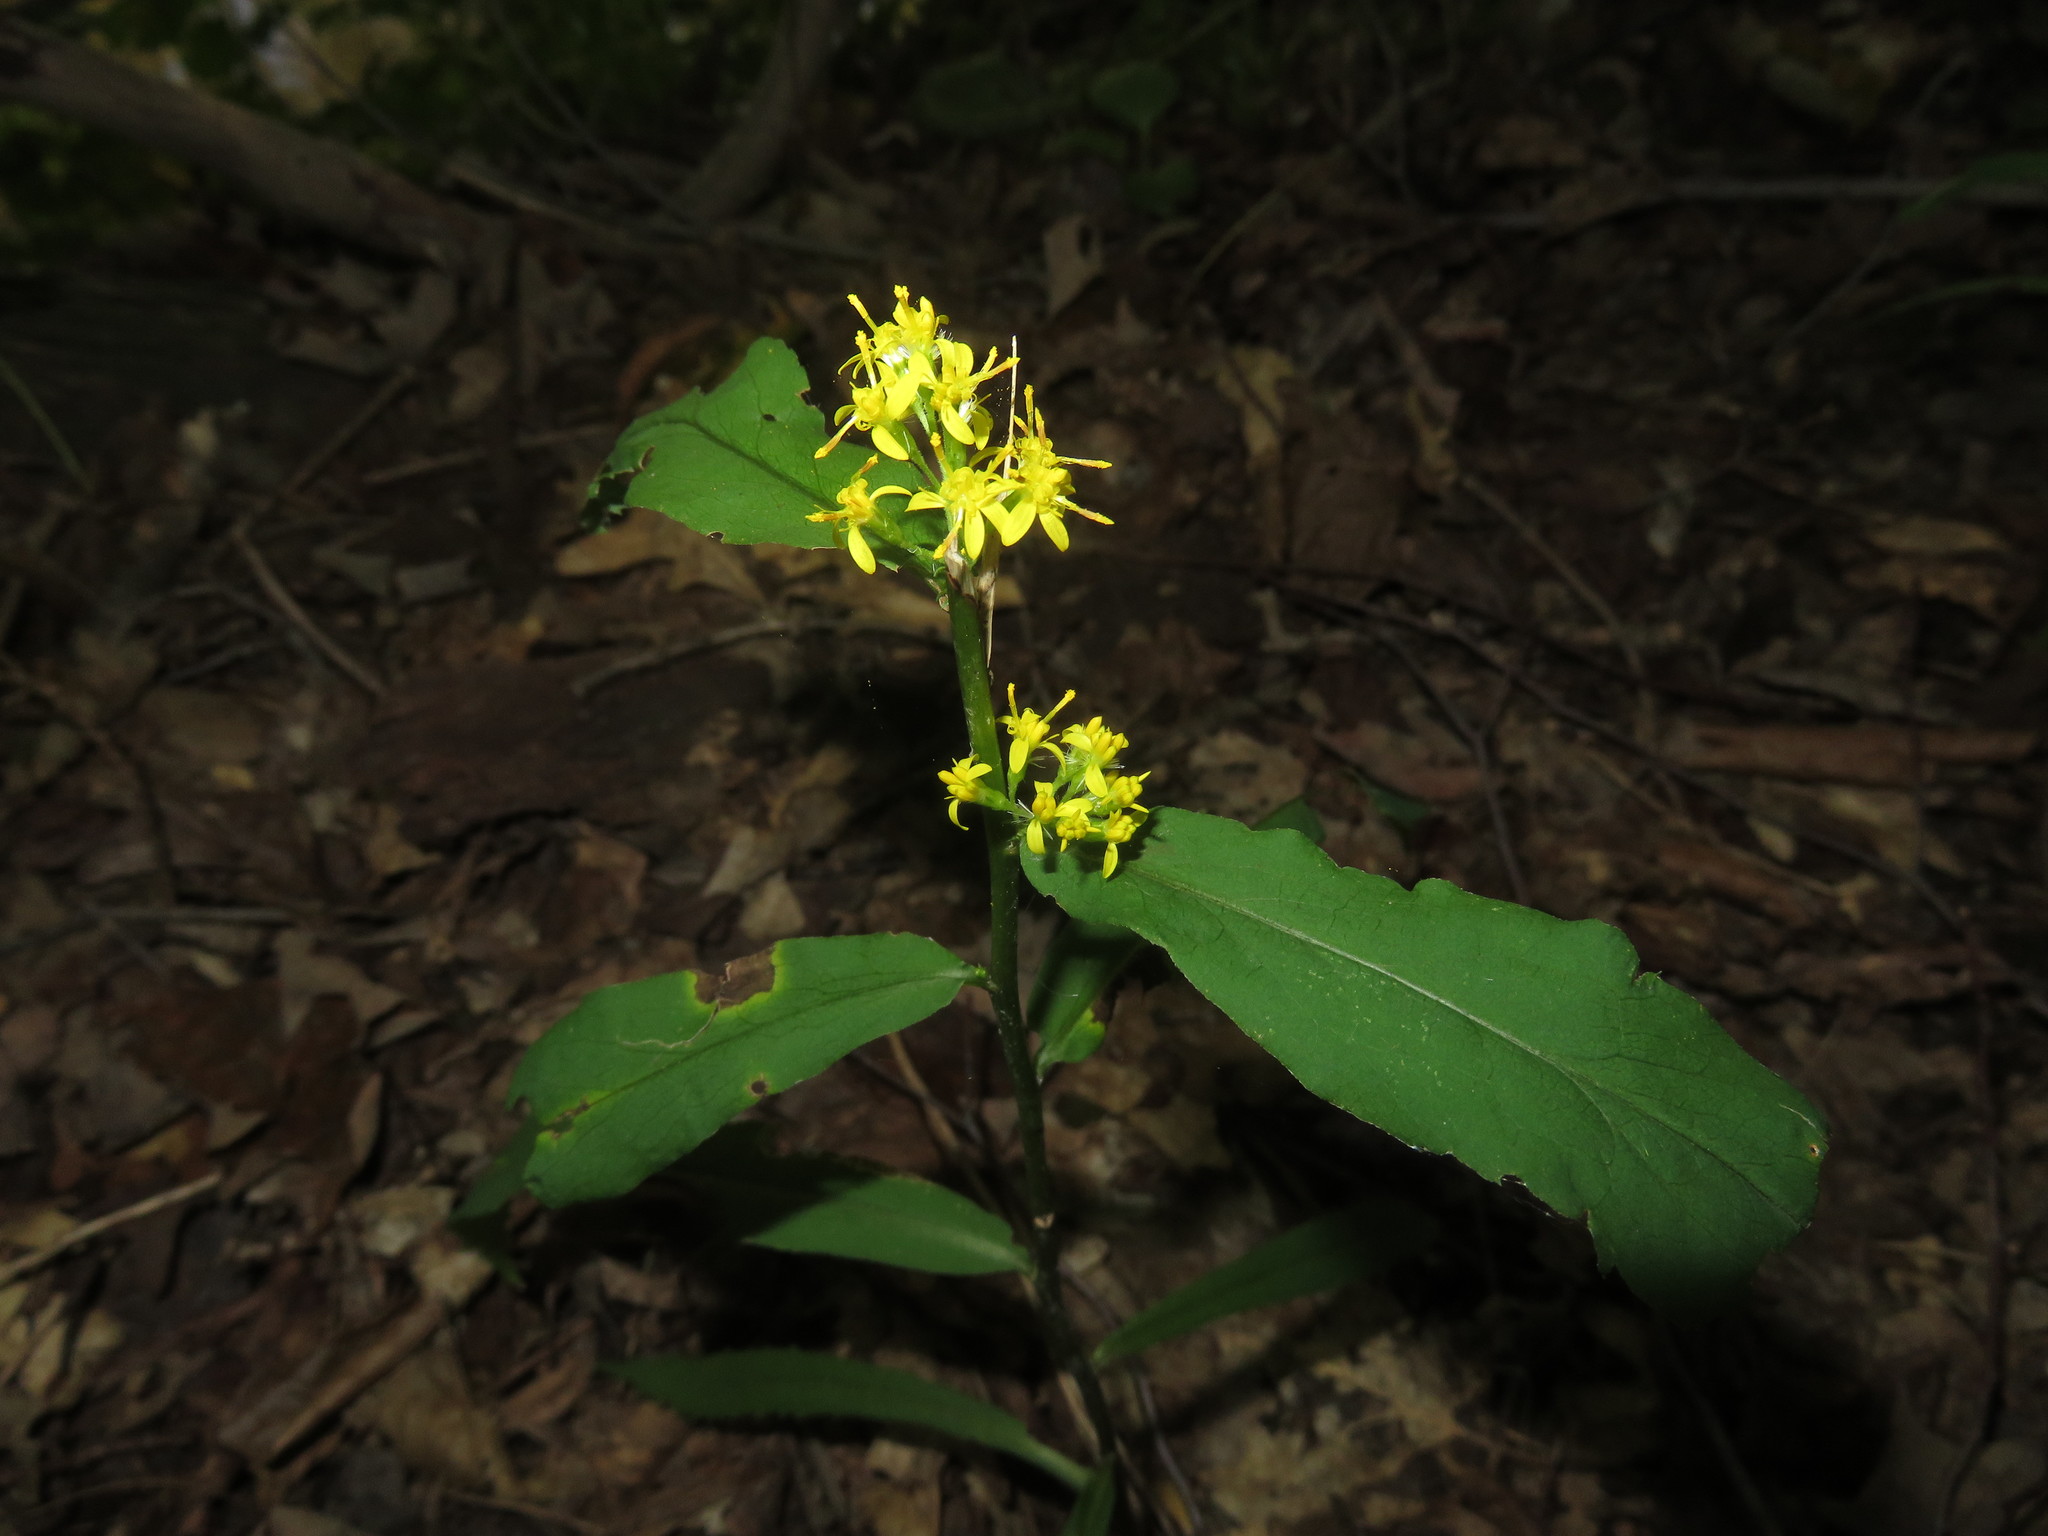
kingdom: Plantae
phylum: Tracheophyta
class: Magnoliopsida
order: Asterales
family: Asteraceae
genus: Solidago
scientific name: Solidago caesia
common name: Woodland goldenrod
